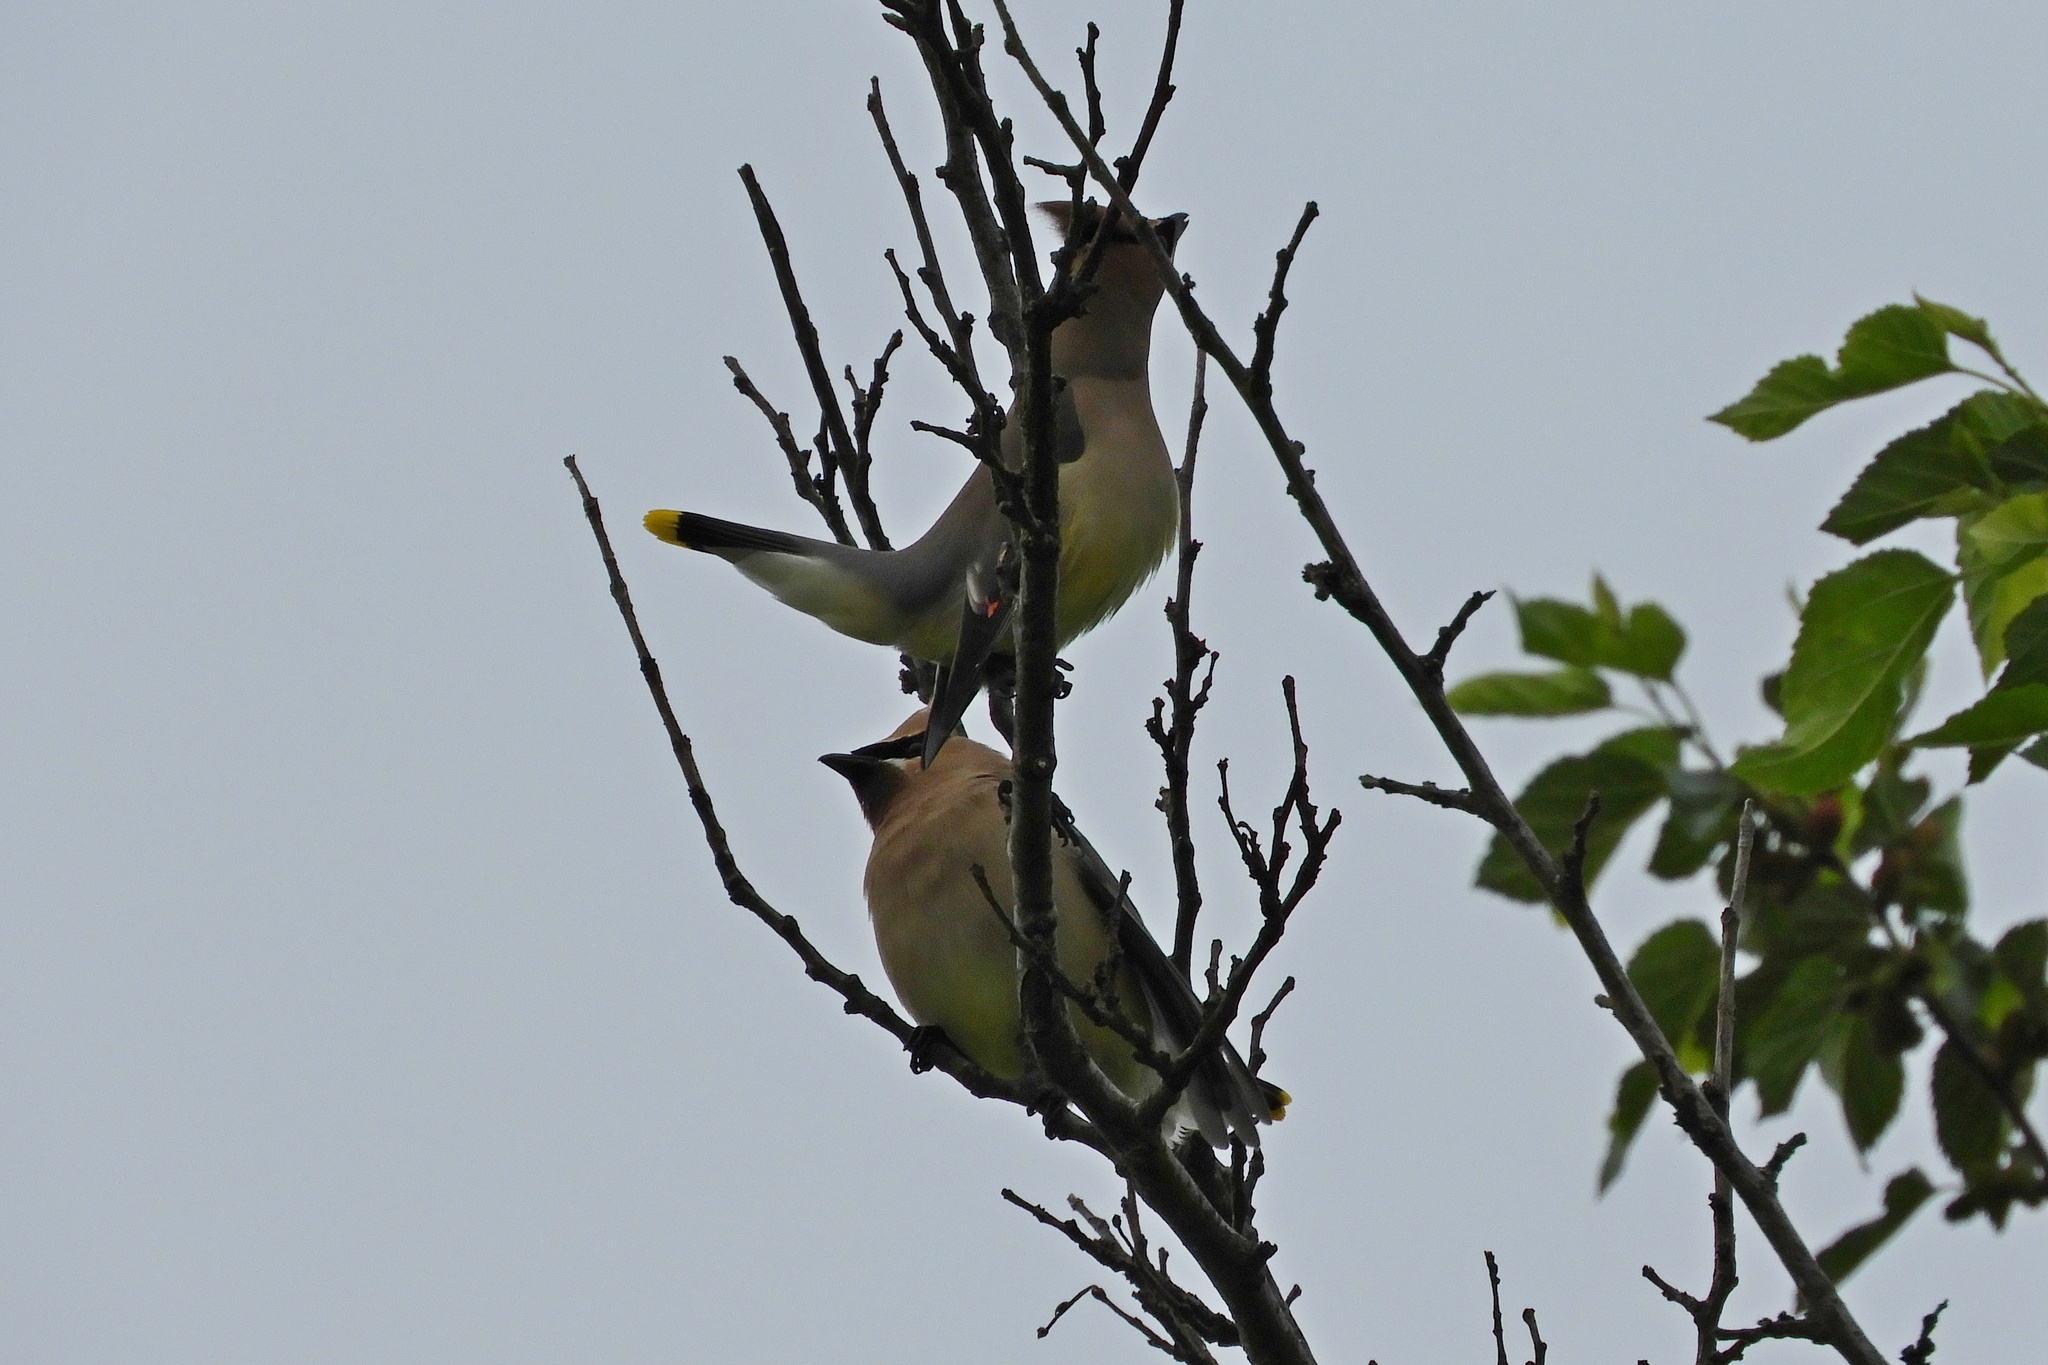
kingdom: Animalia
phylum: Chordata
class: Aves
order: Passeriformes
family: Bombycillidae
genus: Bombycilla
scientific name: Bombycilla cedrorum
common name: Cedar waxwing
